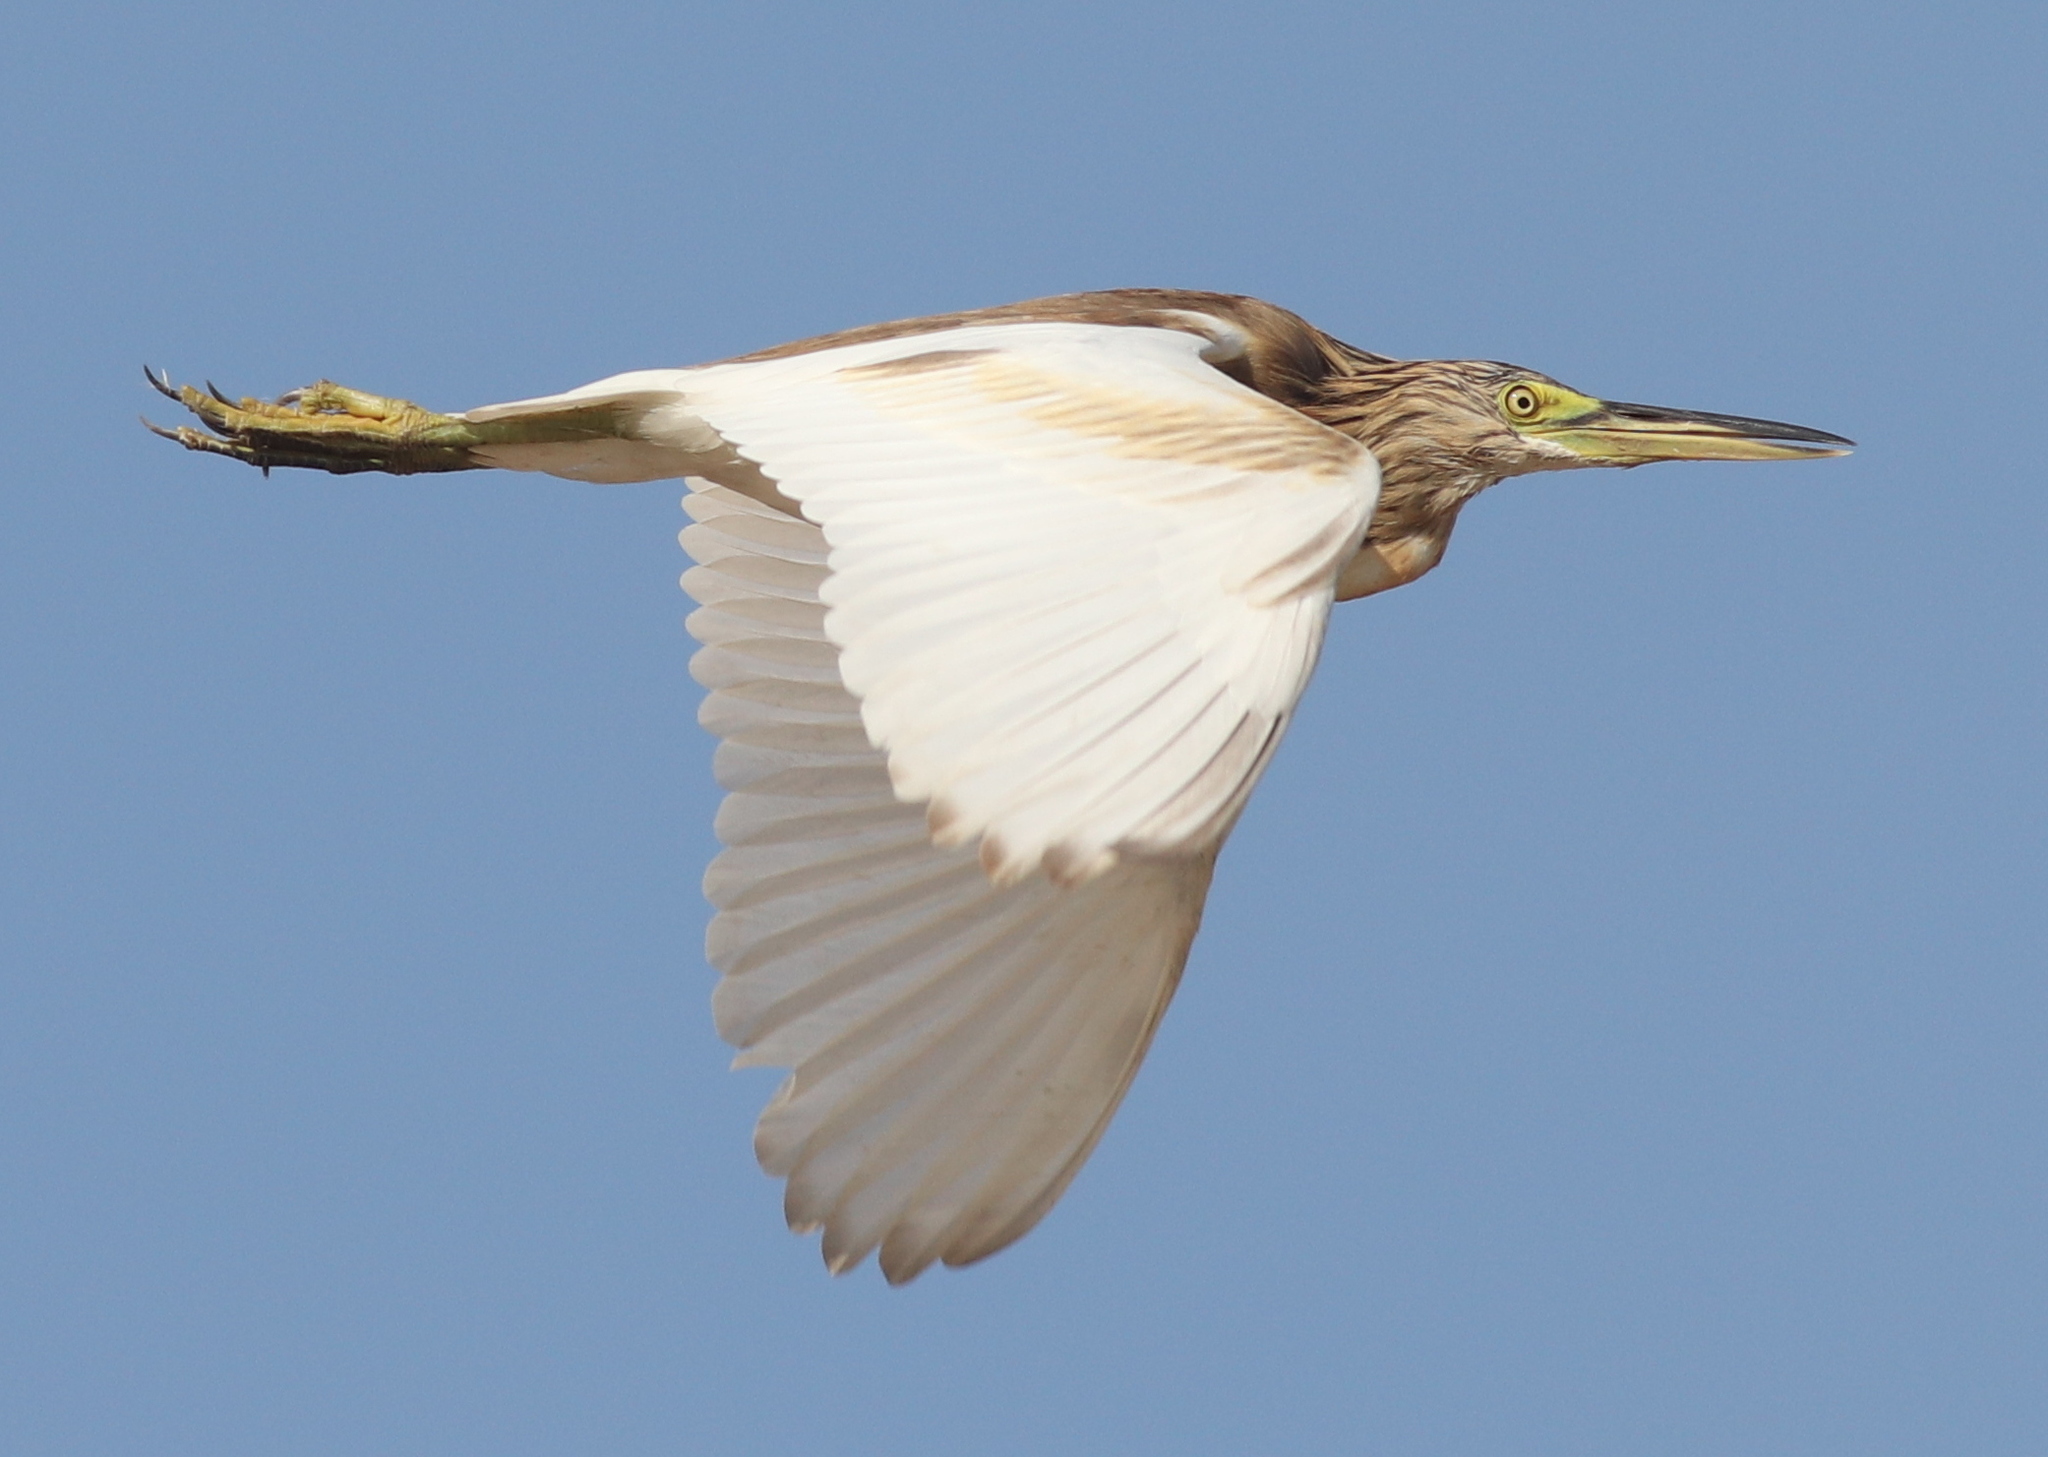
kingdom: Animalia
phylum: Chordata
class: Aves
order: Pelecaniformes
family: Ardeidae
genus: Ardeola
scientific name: Ardeola ralloides
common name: Squacco heron
